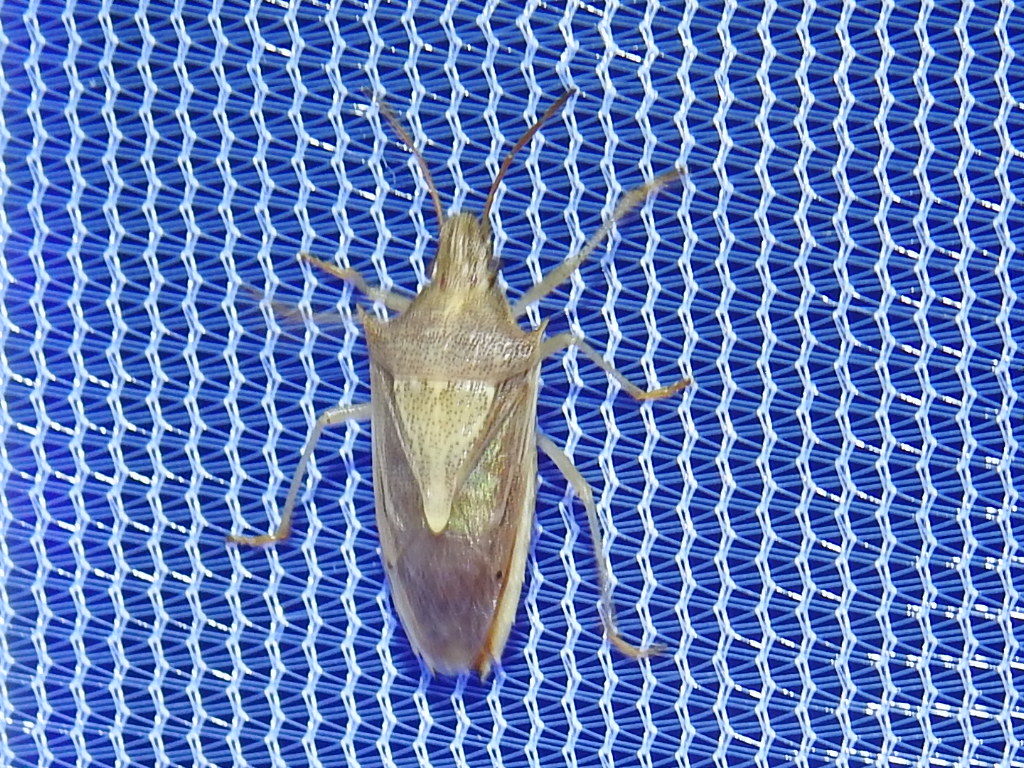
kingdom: Animalia
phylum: Arthropoda
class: Insecta
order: Hemiptera
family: Pentatomidae
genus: Oebalus
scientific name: Oebalus pugnax
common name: Rice stink bug
